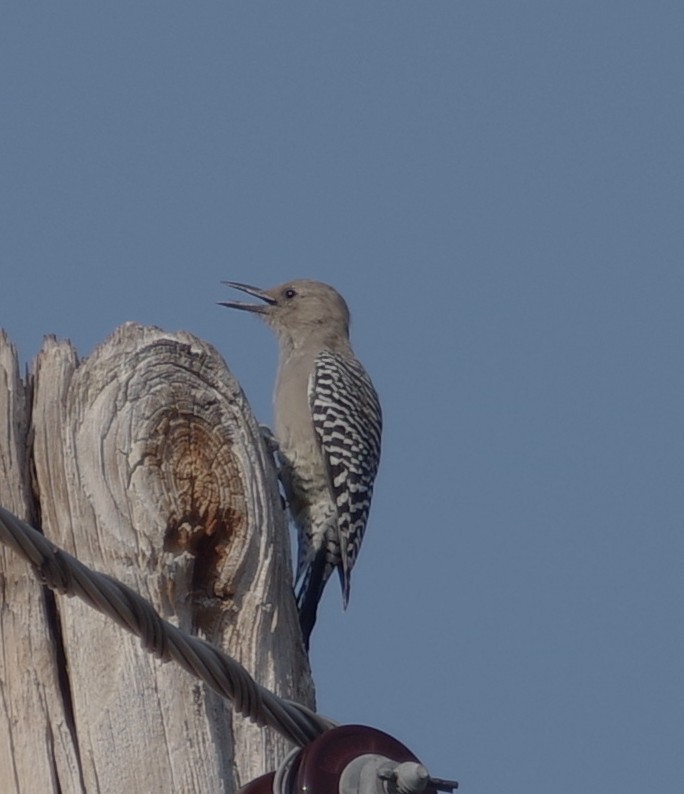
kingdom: Animalia
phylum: Chordata
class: Aves
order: Piciformes
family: Picidae
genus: Melanerpes
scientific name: Melanerpes uropygialis
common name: Gila woodpecker
